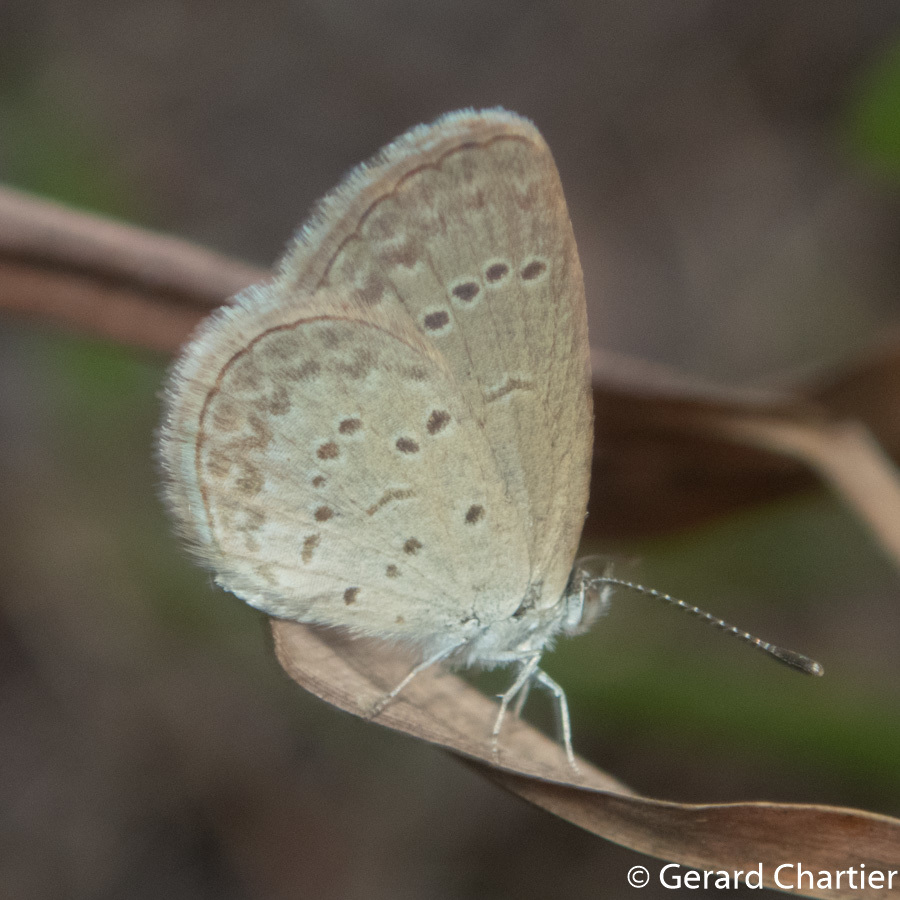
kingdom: Animalia
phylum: Arthropoda
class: Insecta
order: Lepidoptera
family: Lycaenidae
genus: Zizina
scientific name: Zizina otis
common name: Lesser grass blue
